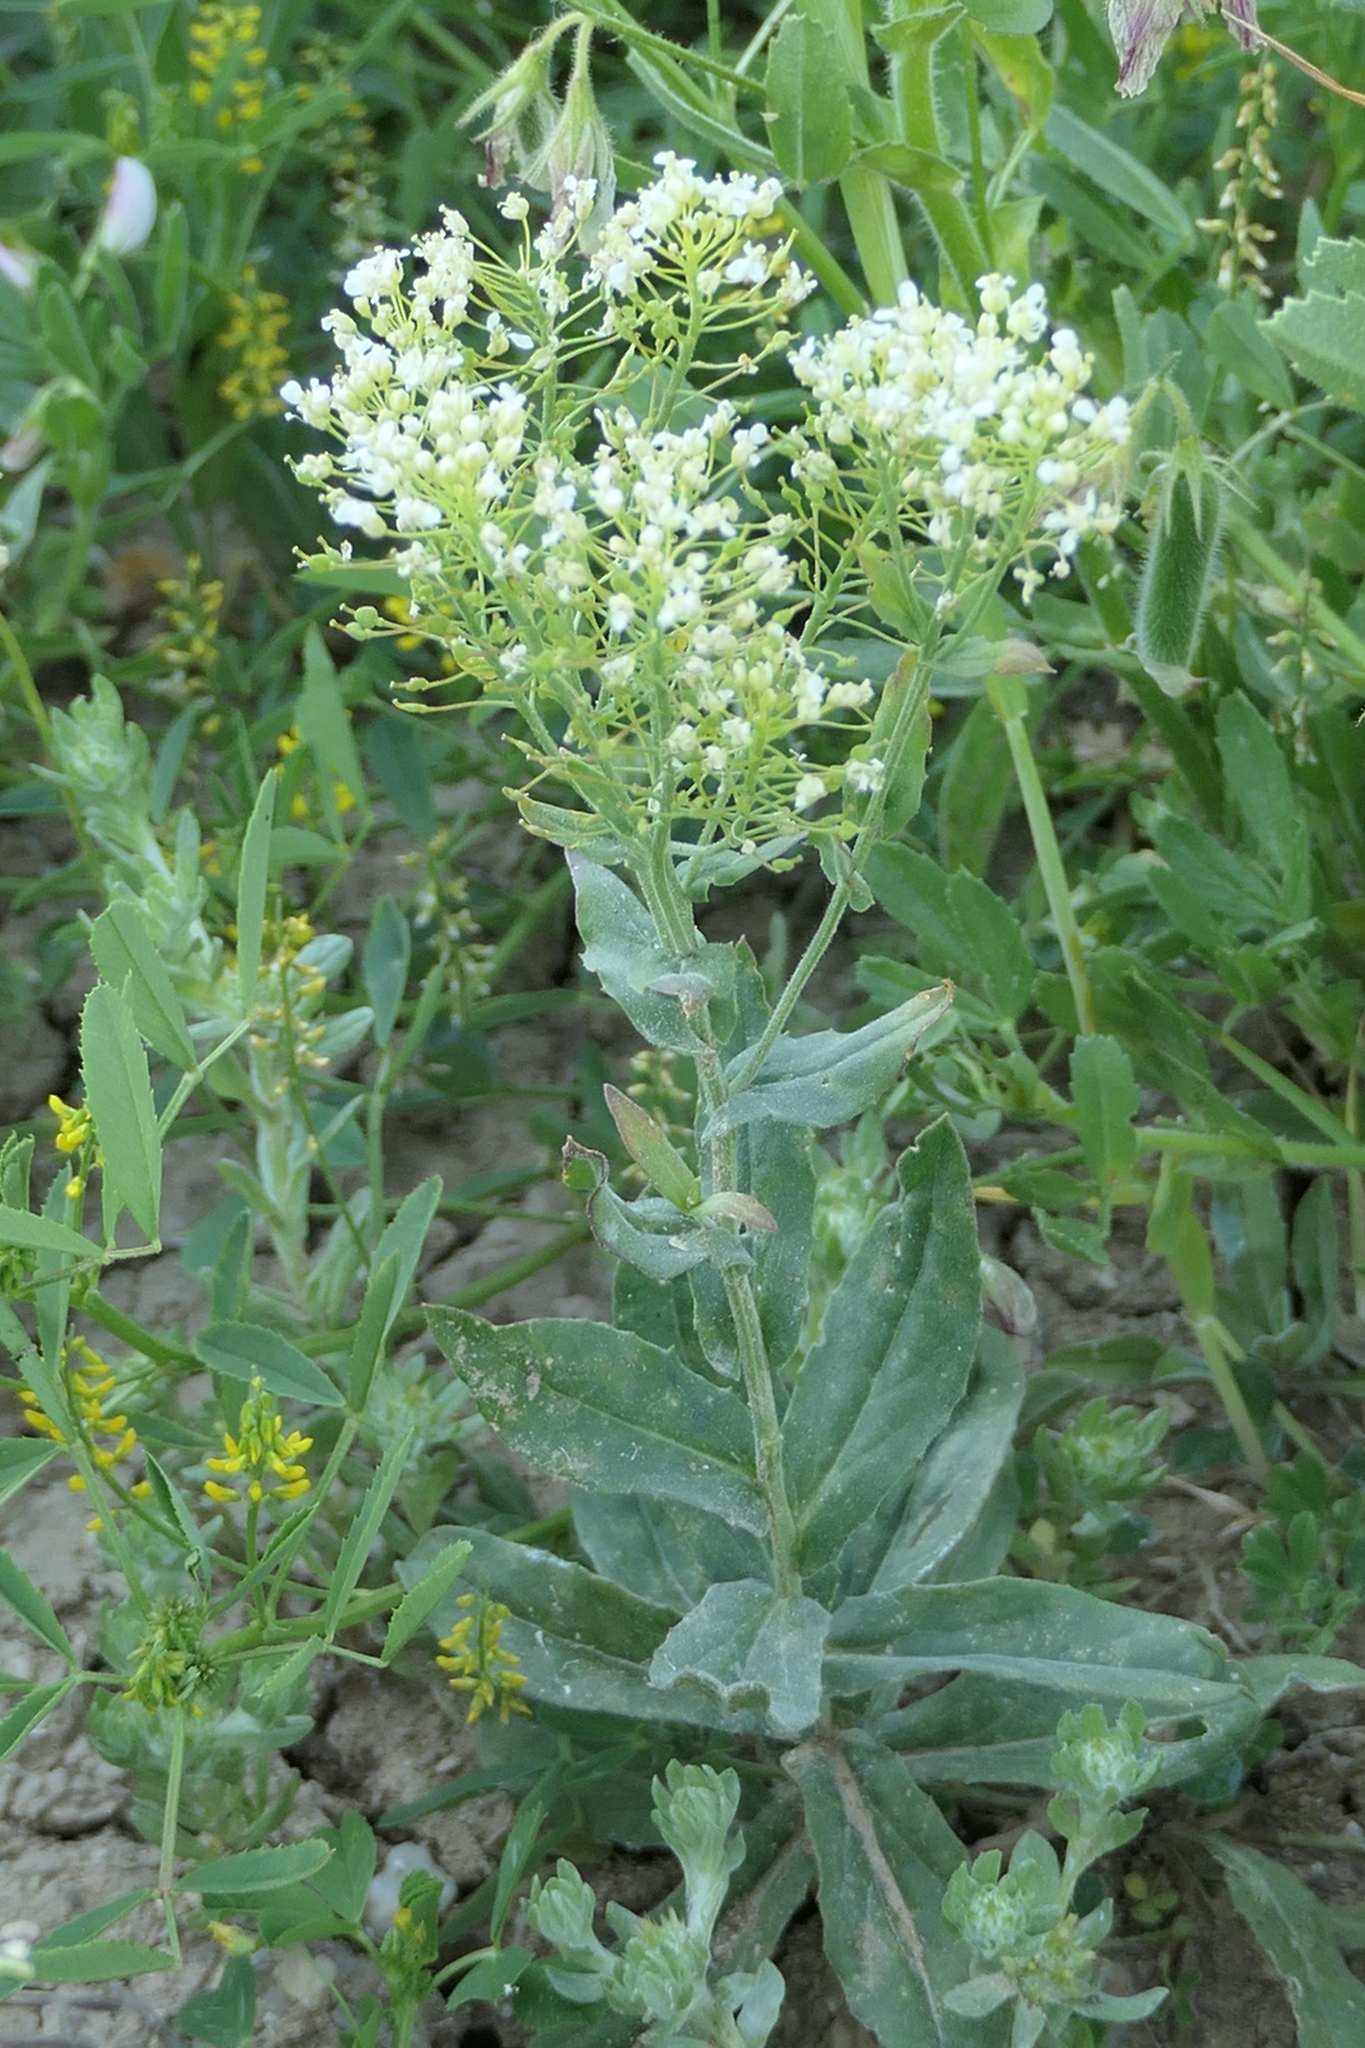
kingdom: Plantae
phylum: Tracheophyta
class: Magnoliopsida
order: Brassicales
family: Brassicaceae
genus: Lepidium
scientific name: Lepidium draba
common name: Hoary cress
